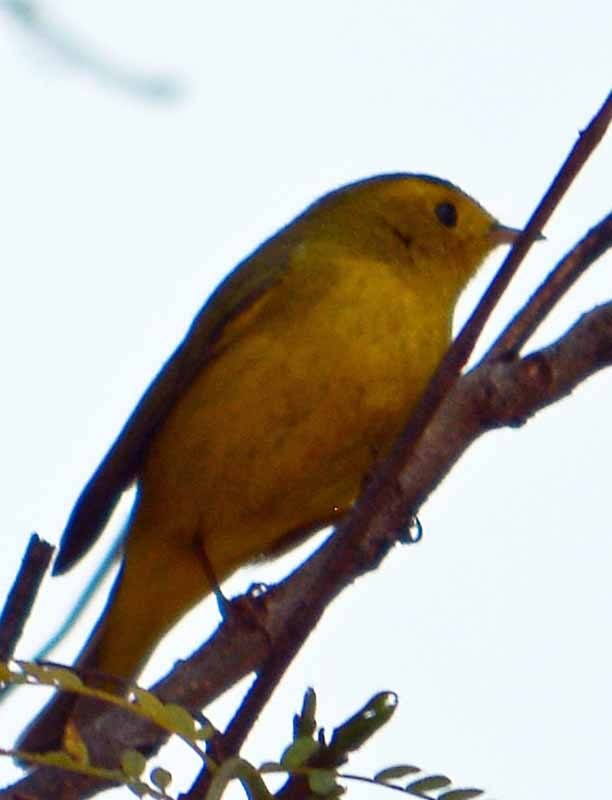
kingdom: Animalia
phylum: Chordata
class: Aves
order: Passeriformes
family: Parulidae
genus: Cardellina
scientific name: Cardellina pusilla
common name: Wilson's warbler
